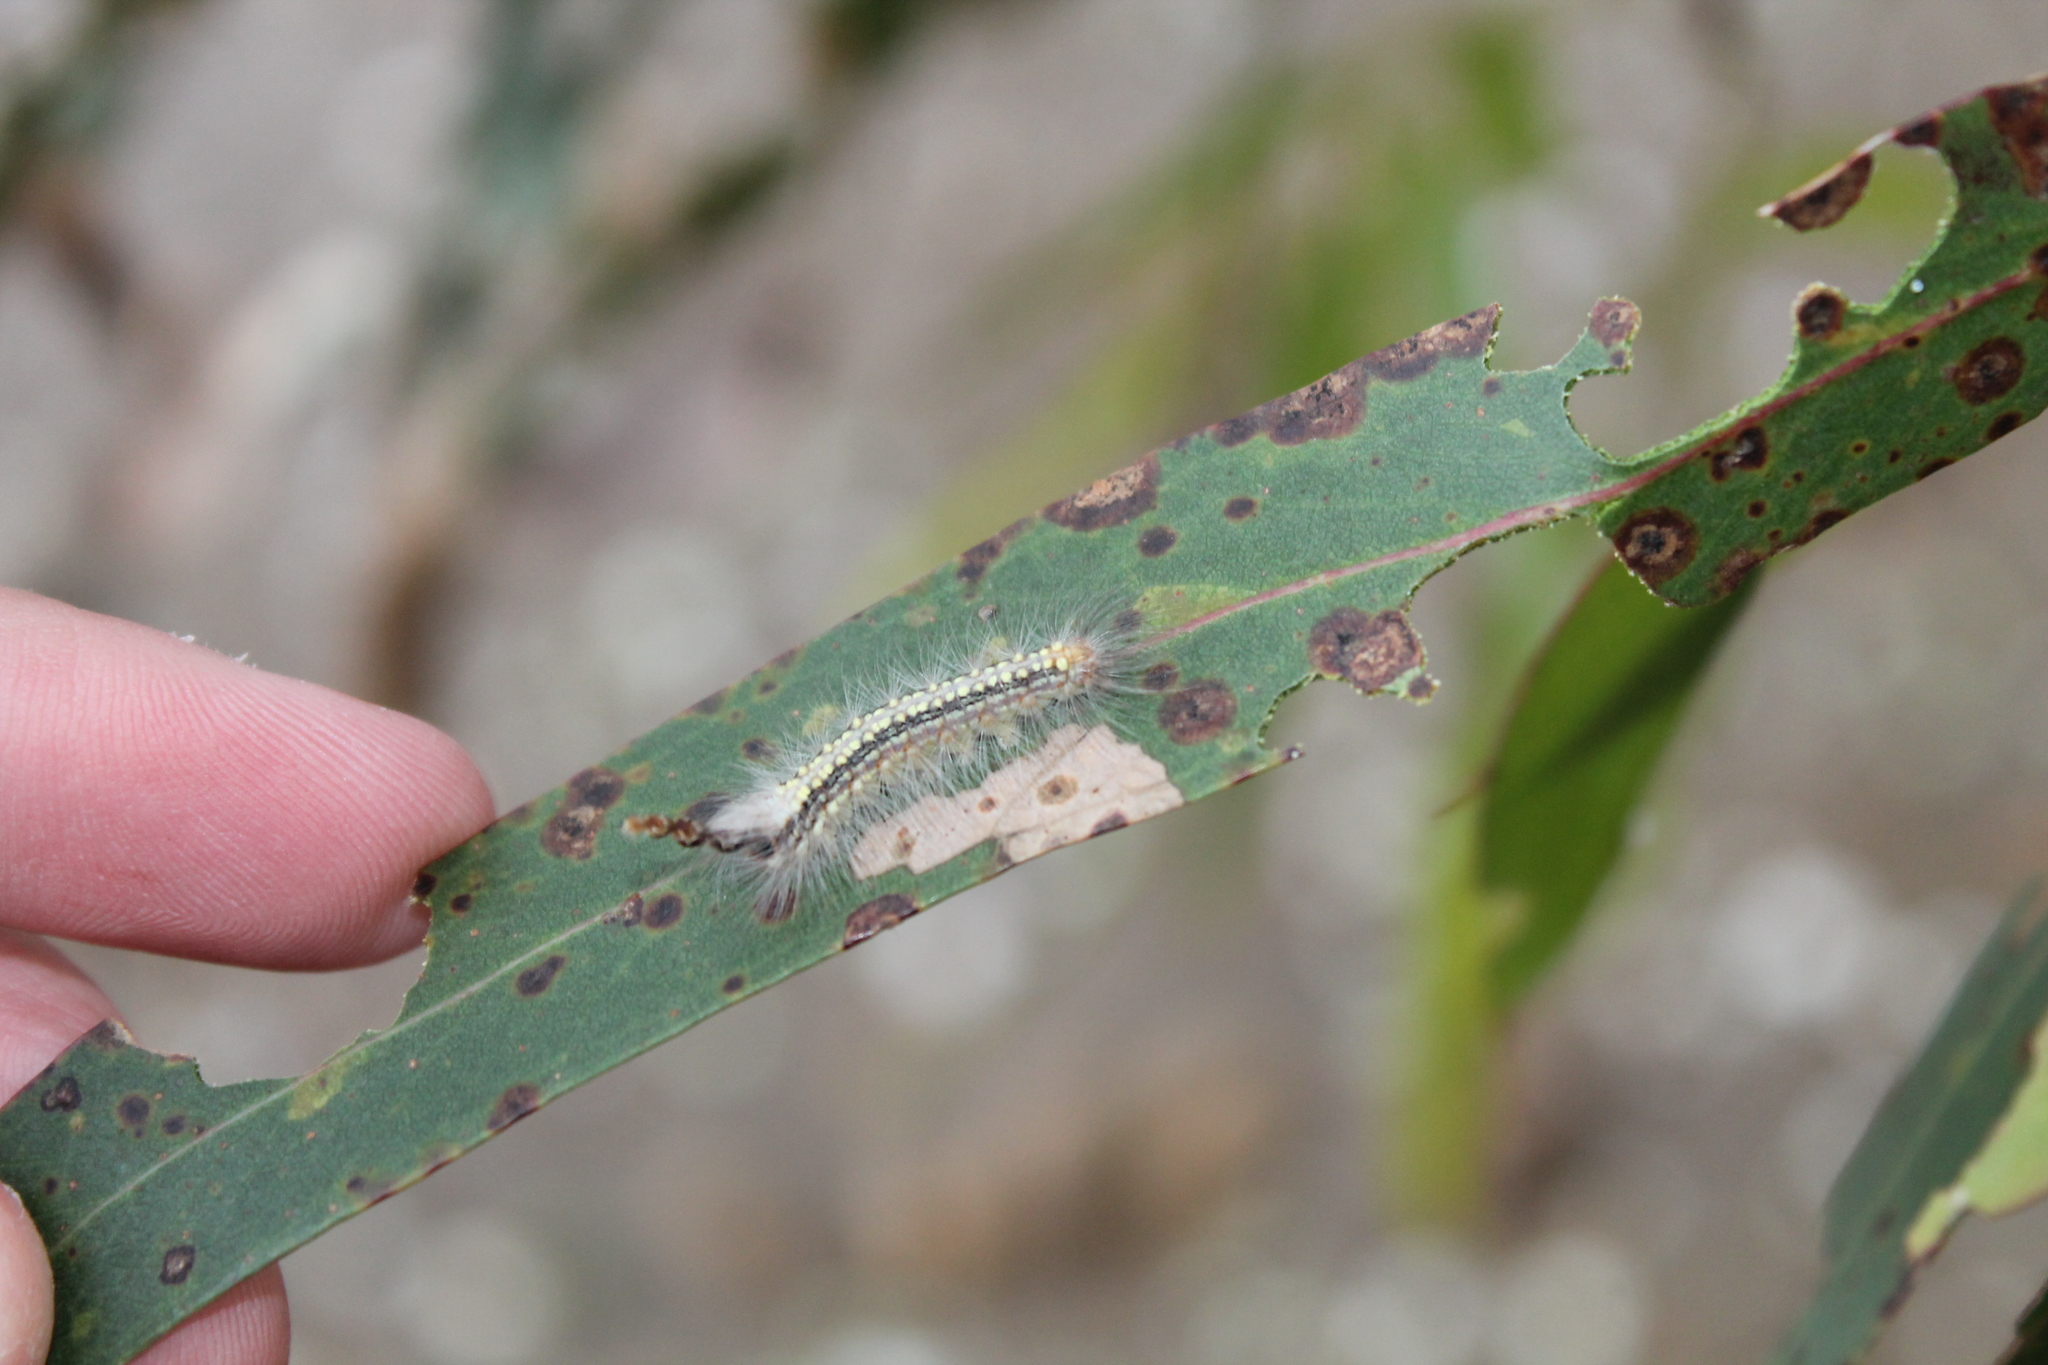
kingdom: Animalia
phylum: Arthropoda
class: Insecta
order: Lepidoptera
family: Nolidae
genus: Uraba
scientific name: Uraba lugens
